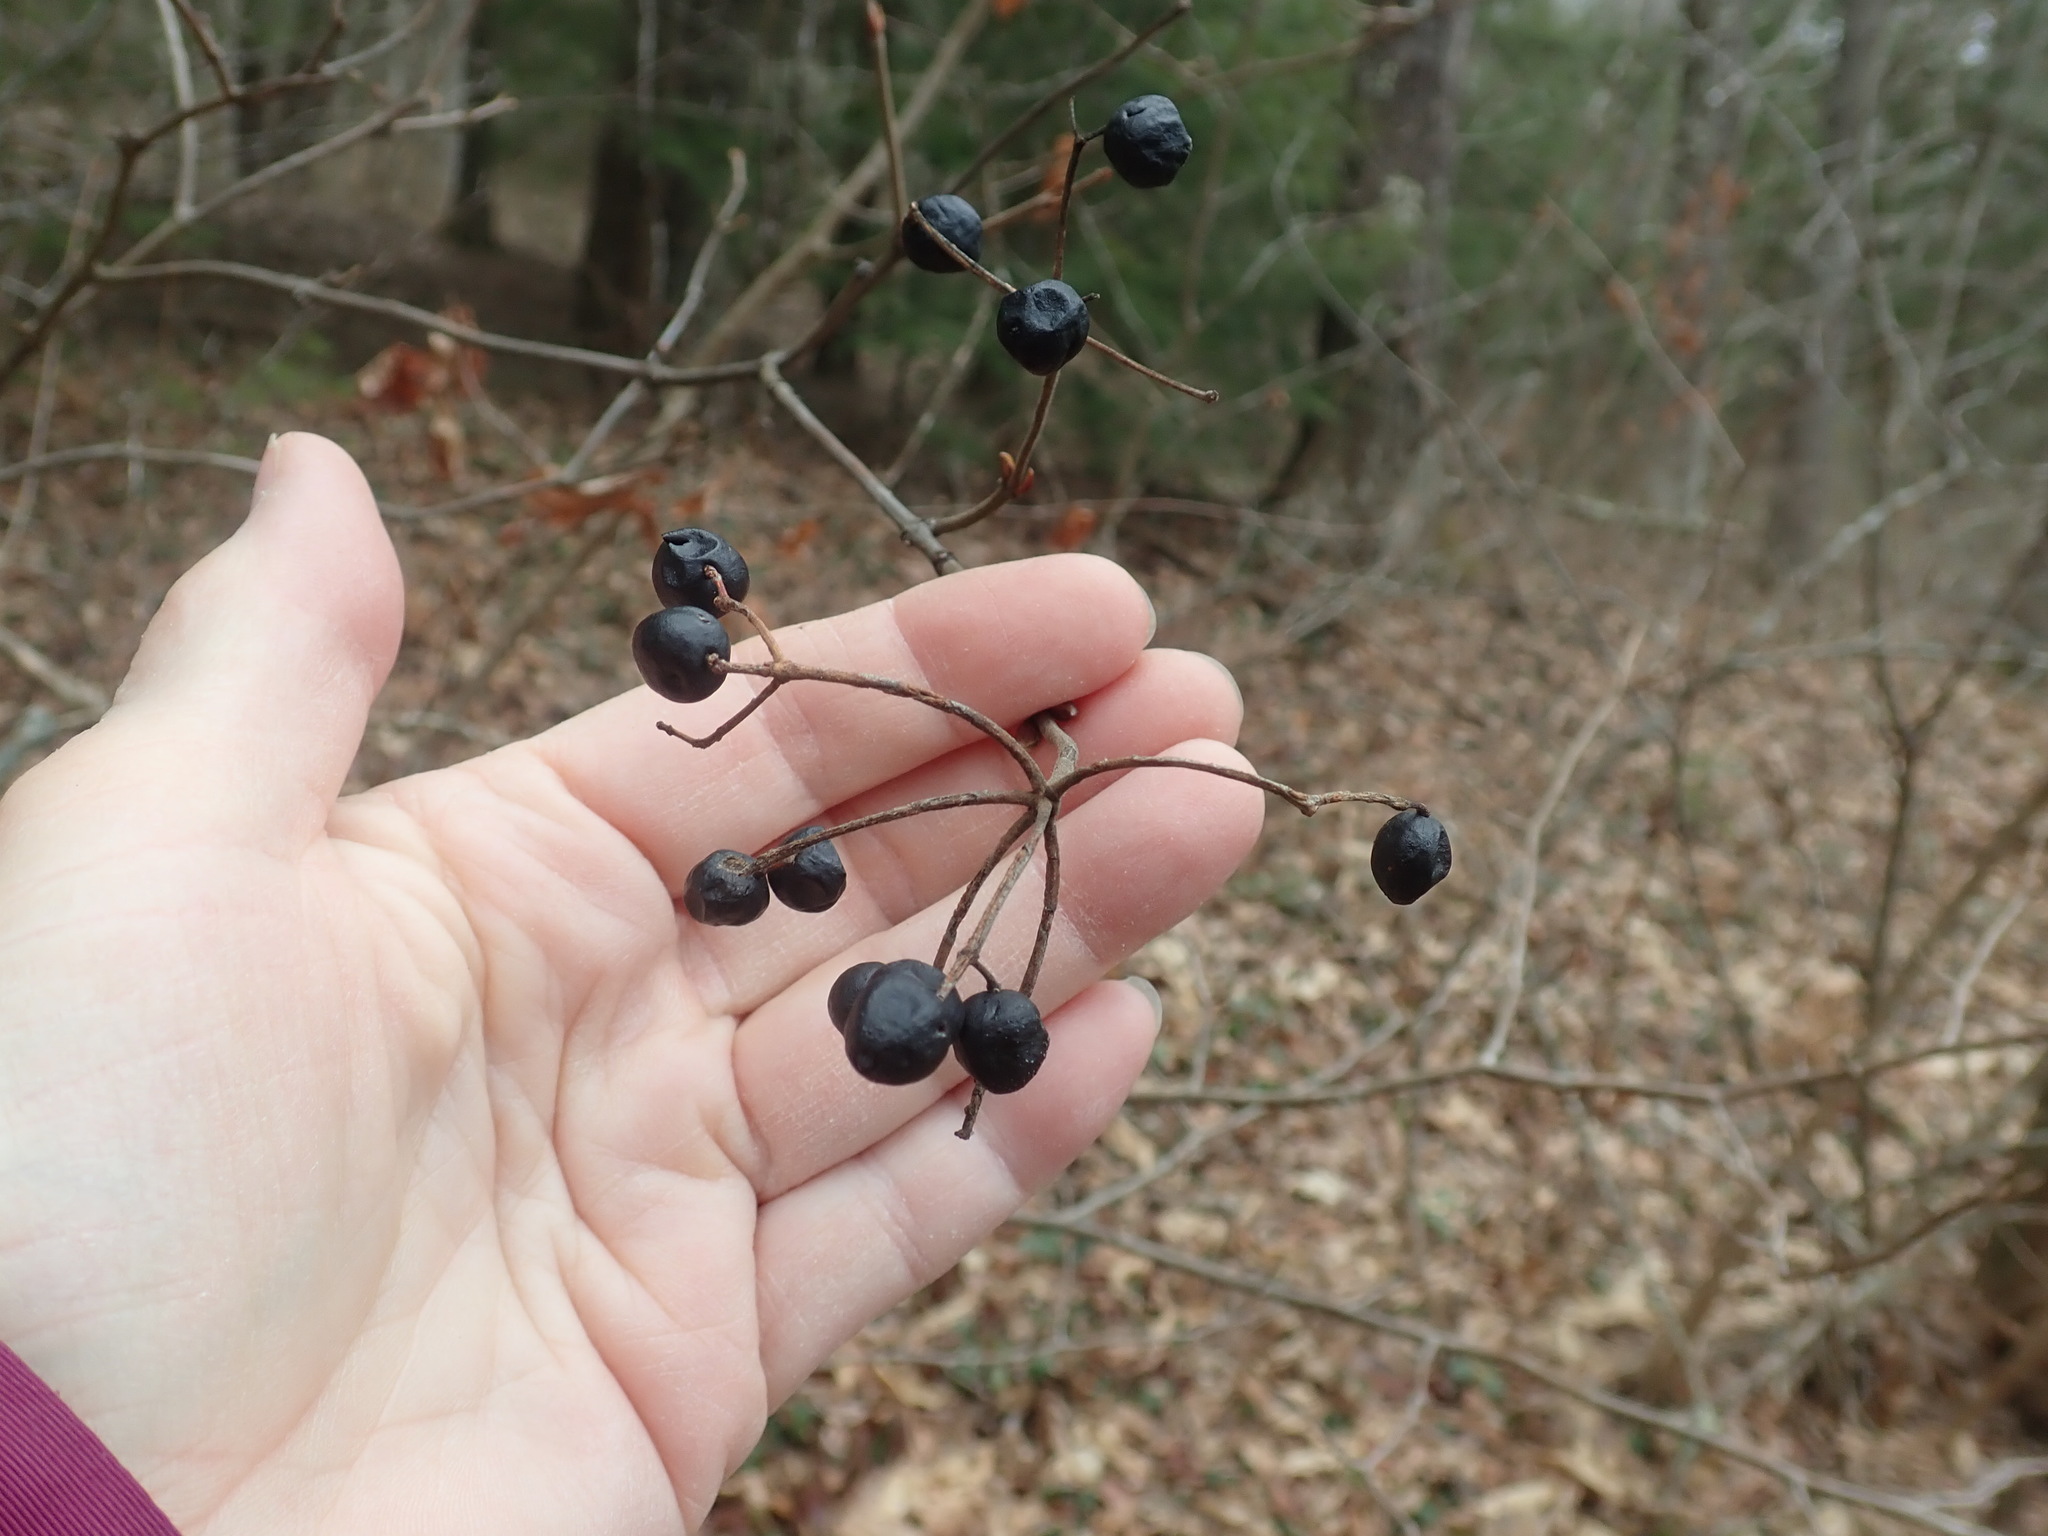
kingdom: Plantae
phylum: Tracheophyta
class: Magnoliopsida
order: Dipsacales
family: Viburnaceae
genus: Viburnum
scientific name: Viburnum acerifolium
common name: Dockmackie
